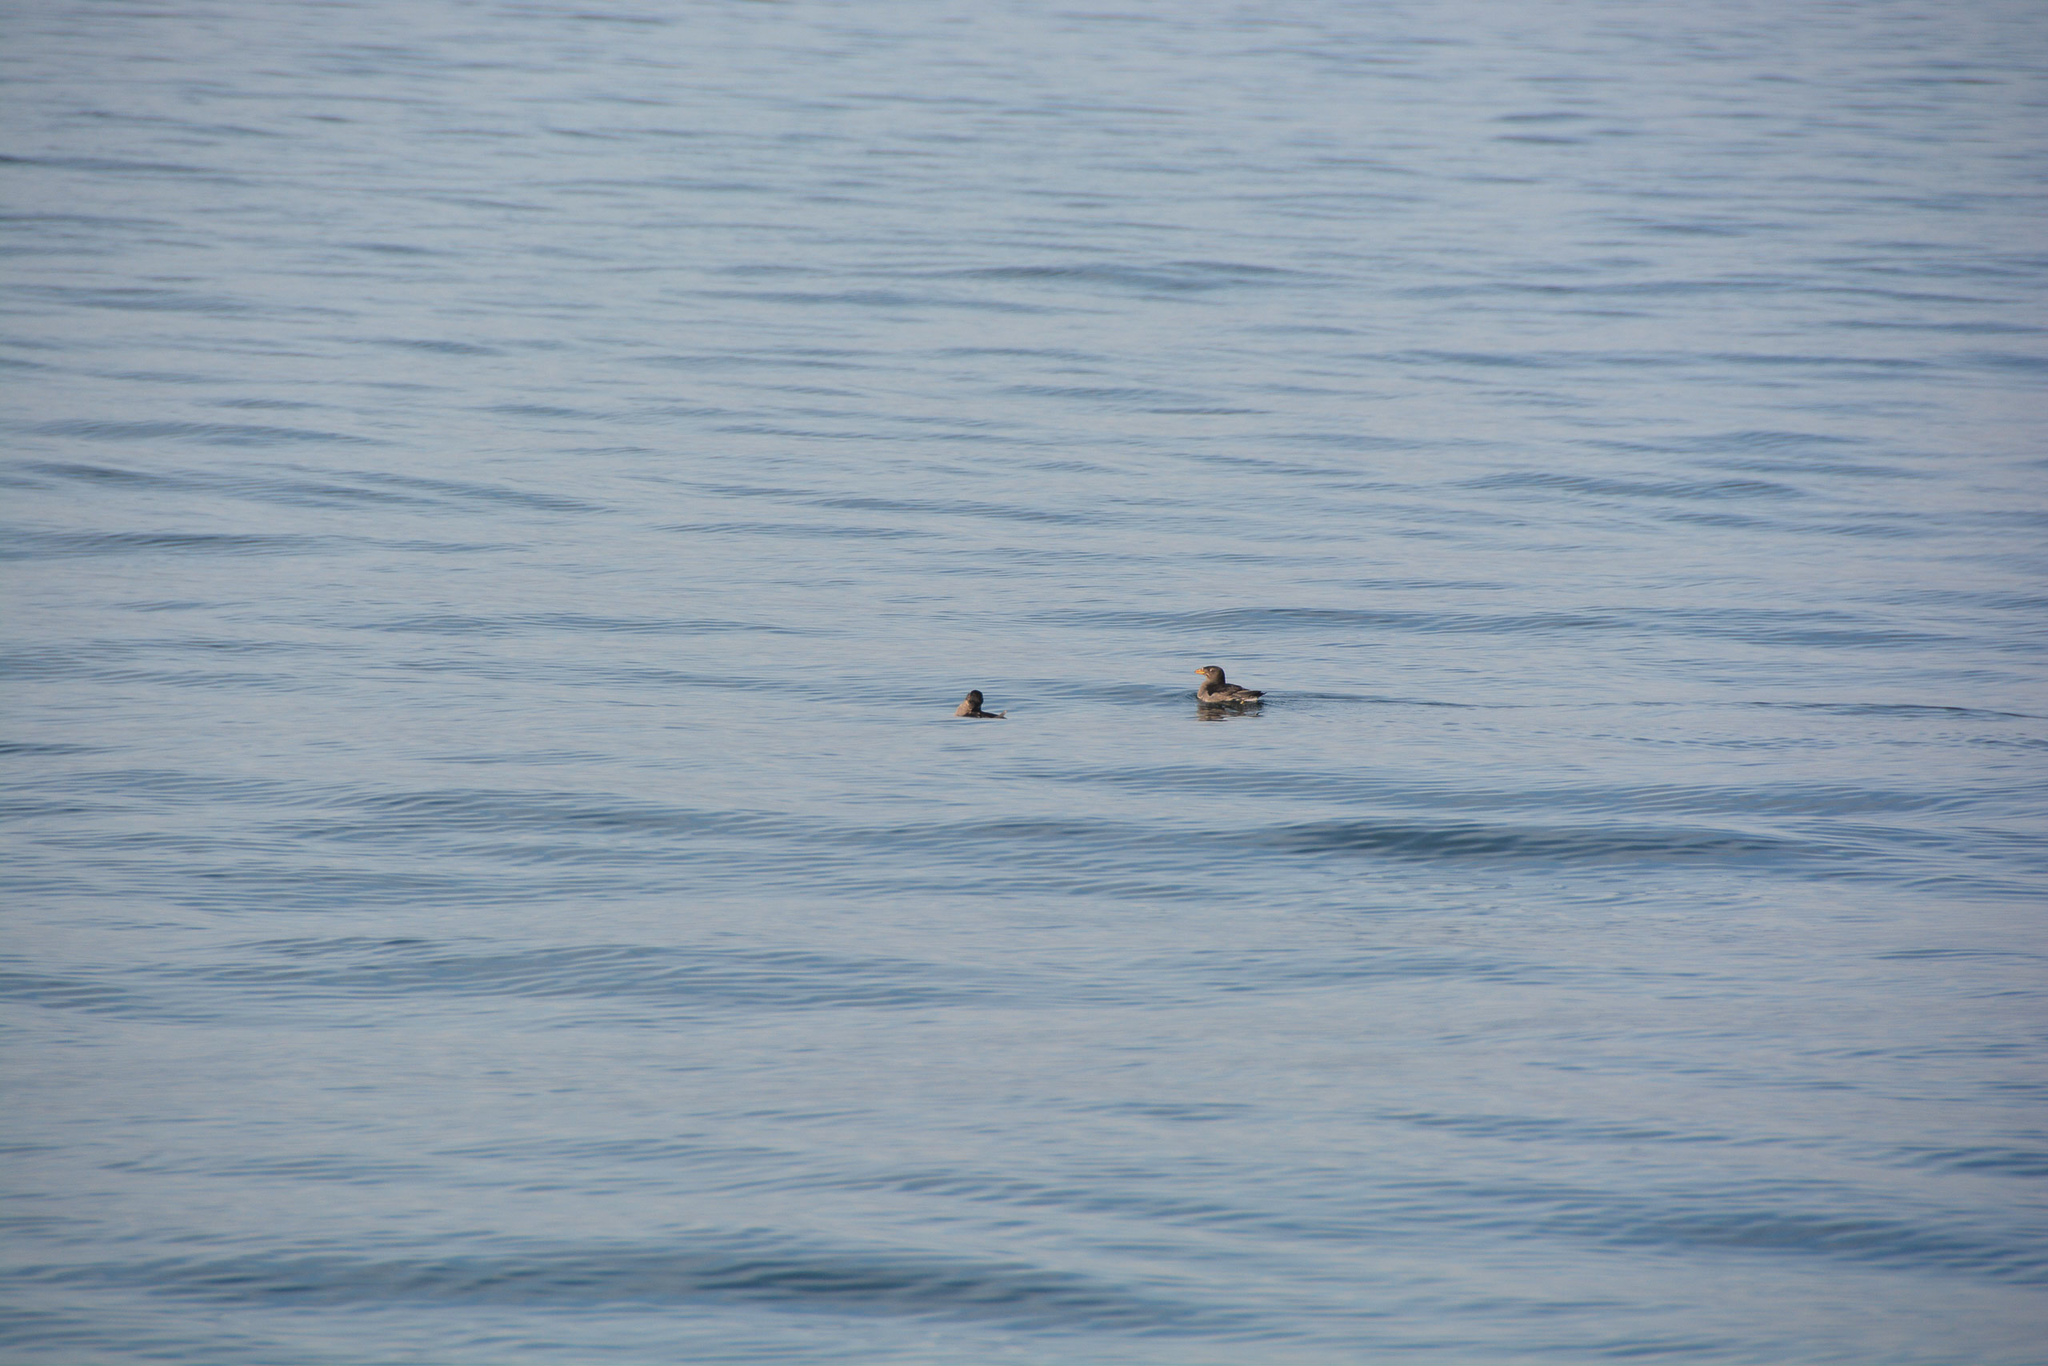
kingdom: Animalia
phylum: Chordata
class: Aves
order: Charadriiformes
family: Alcidae
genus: Cerorhinca
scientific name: Cerorhinca monocerata
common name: Rhinoceros auklet
